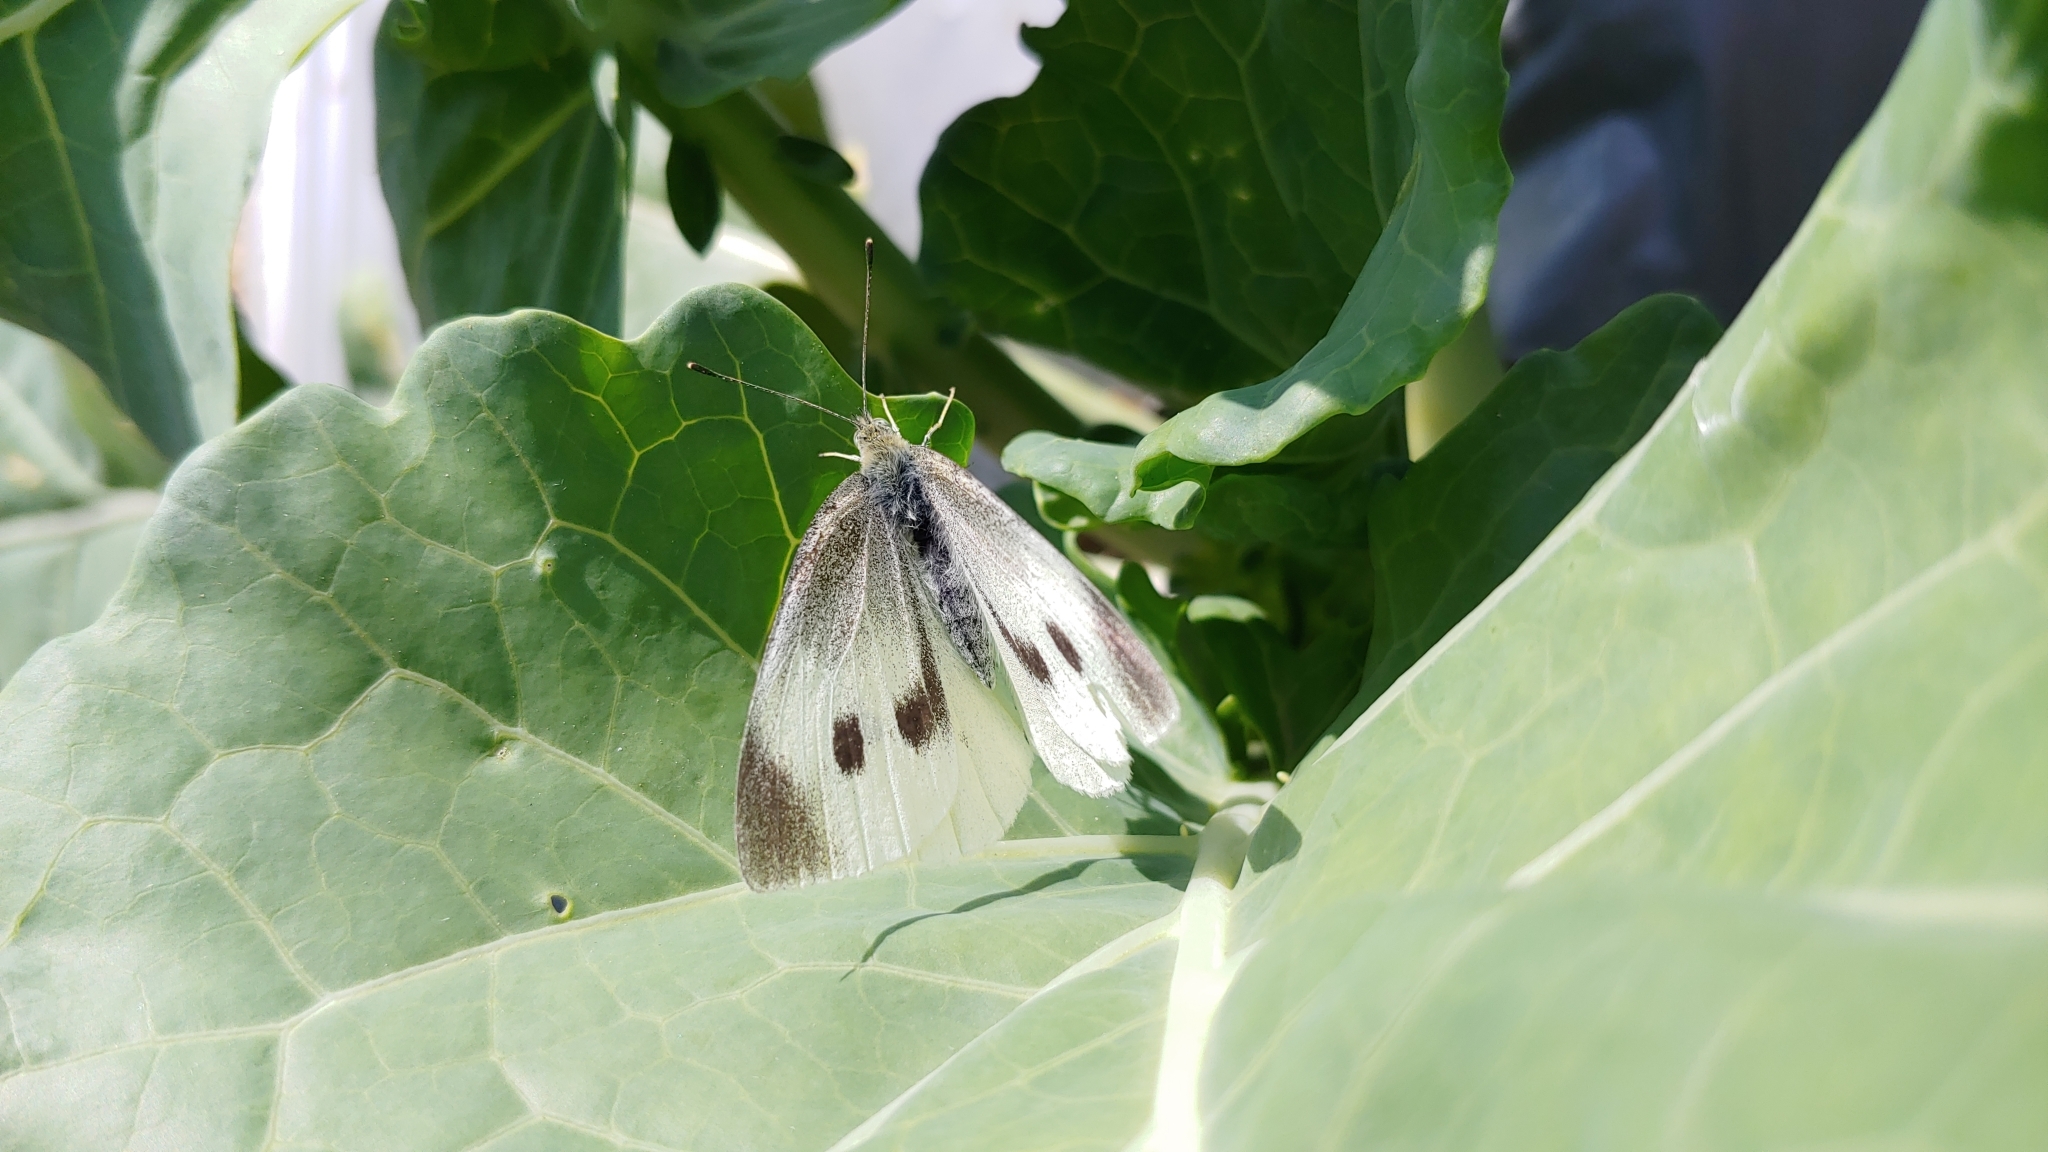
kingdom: Animalia
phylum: Arthropoda
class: Insecta
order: Lepidoptera
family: Pieridae
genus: Pieris
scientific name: Pieris rapae
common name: Small white
